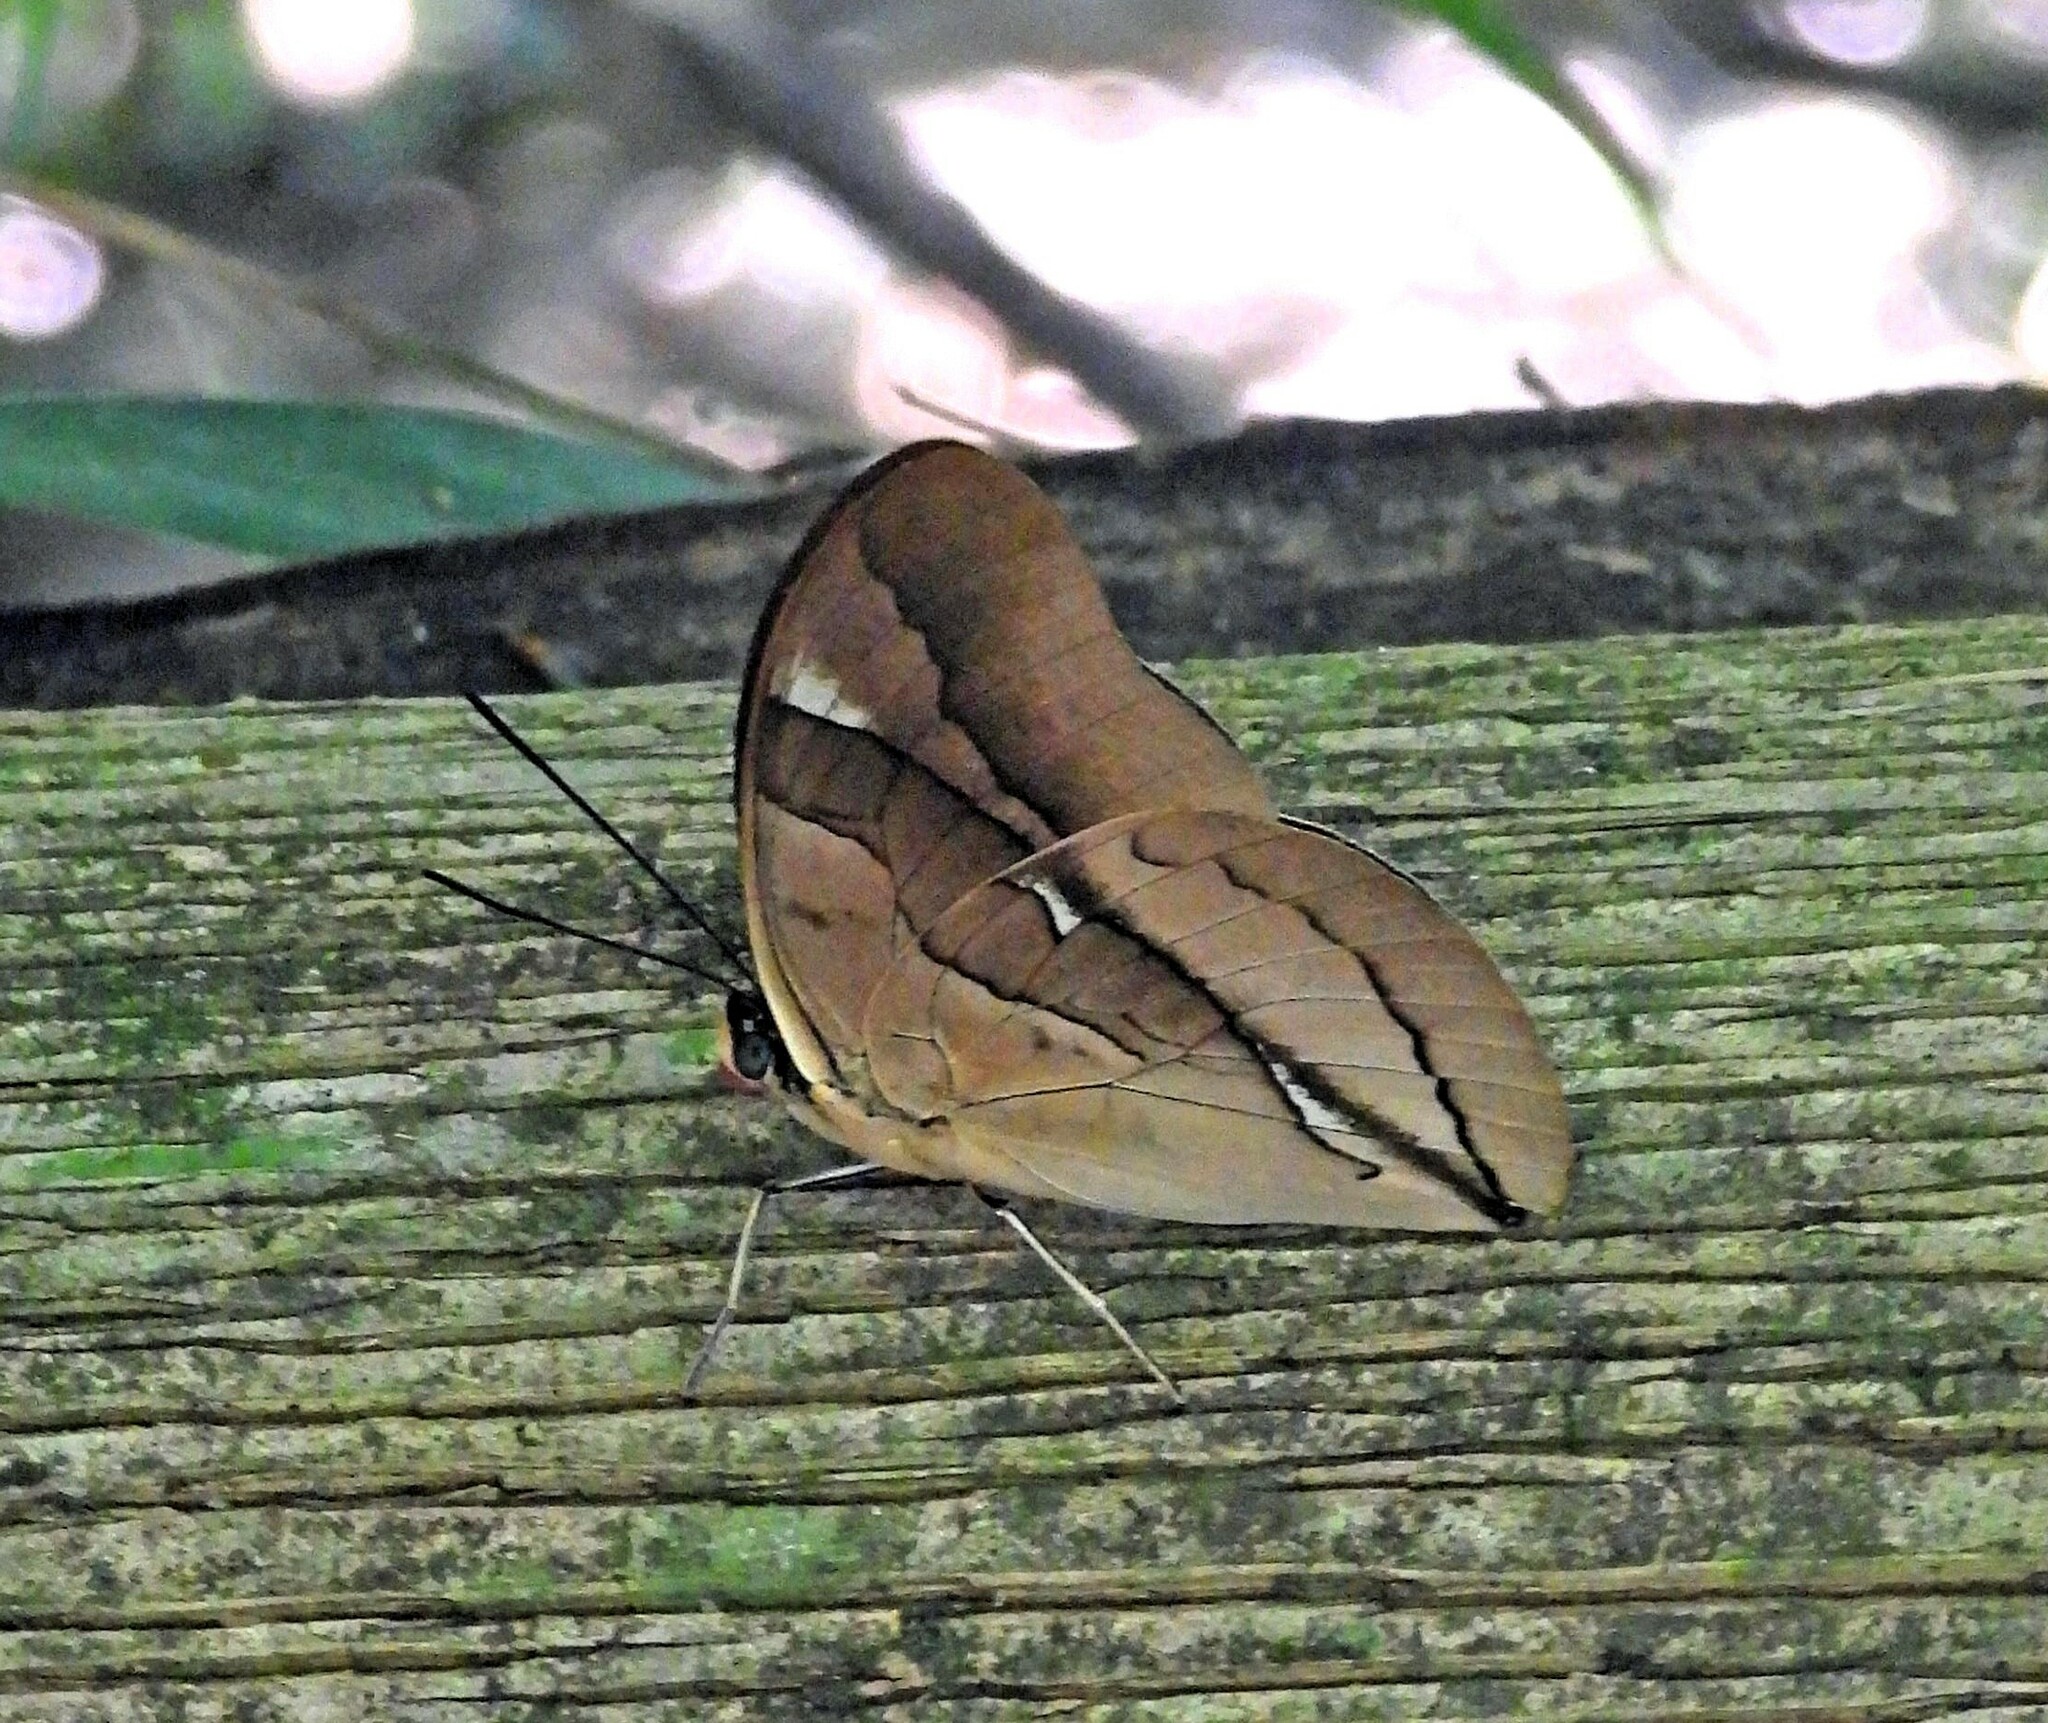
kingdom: Animalia
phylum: Arthropoda
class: Insecta
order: Lepidoptera
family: Nymphalidae
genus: Prepona
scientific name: Prepona Archaeoprepona chalciope
